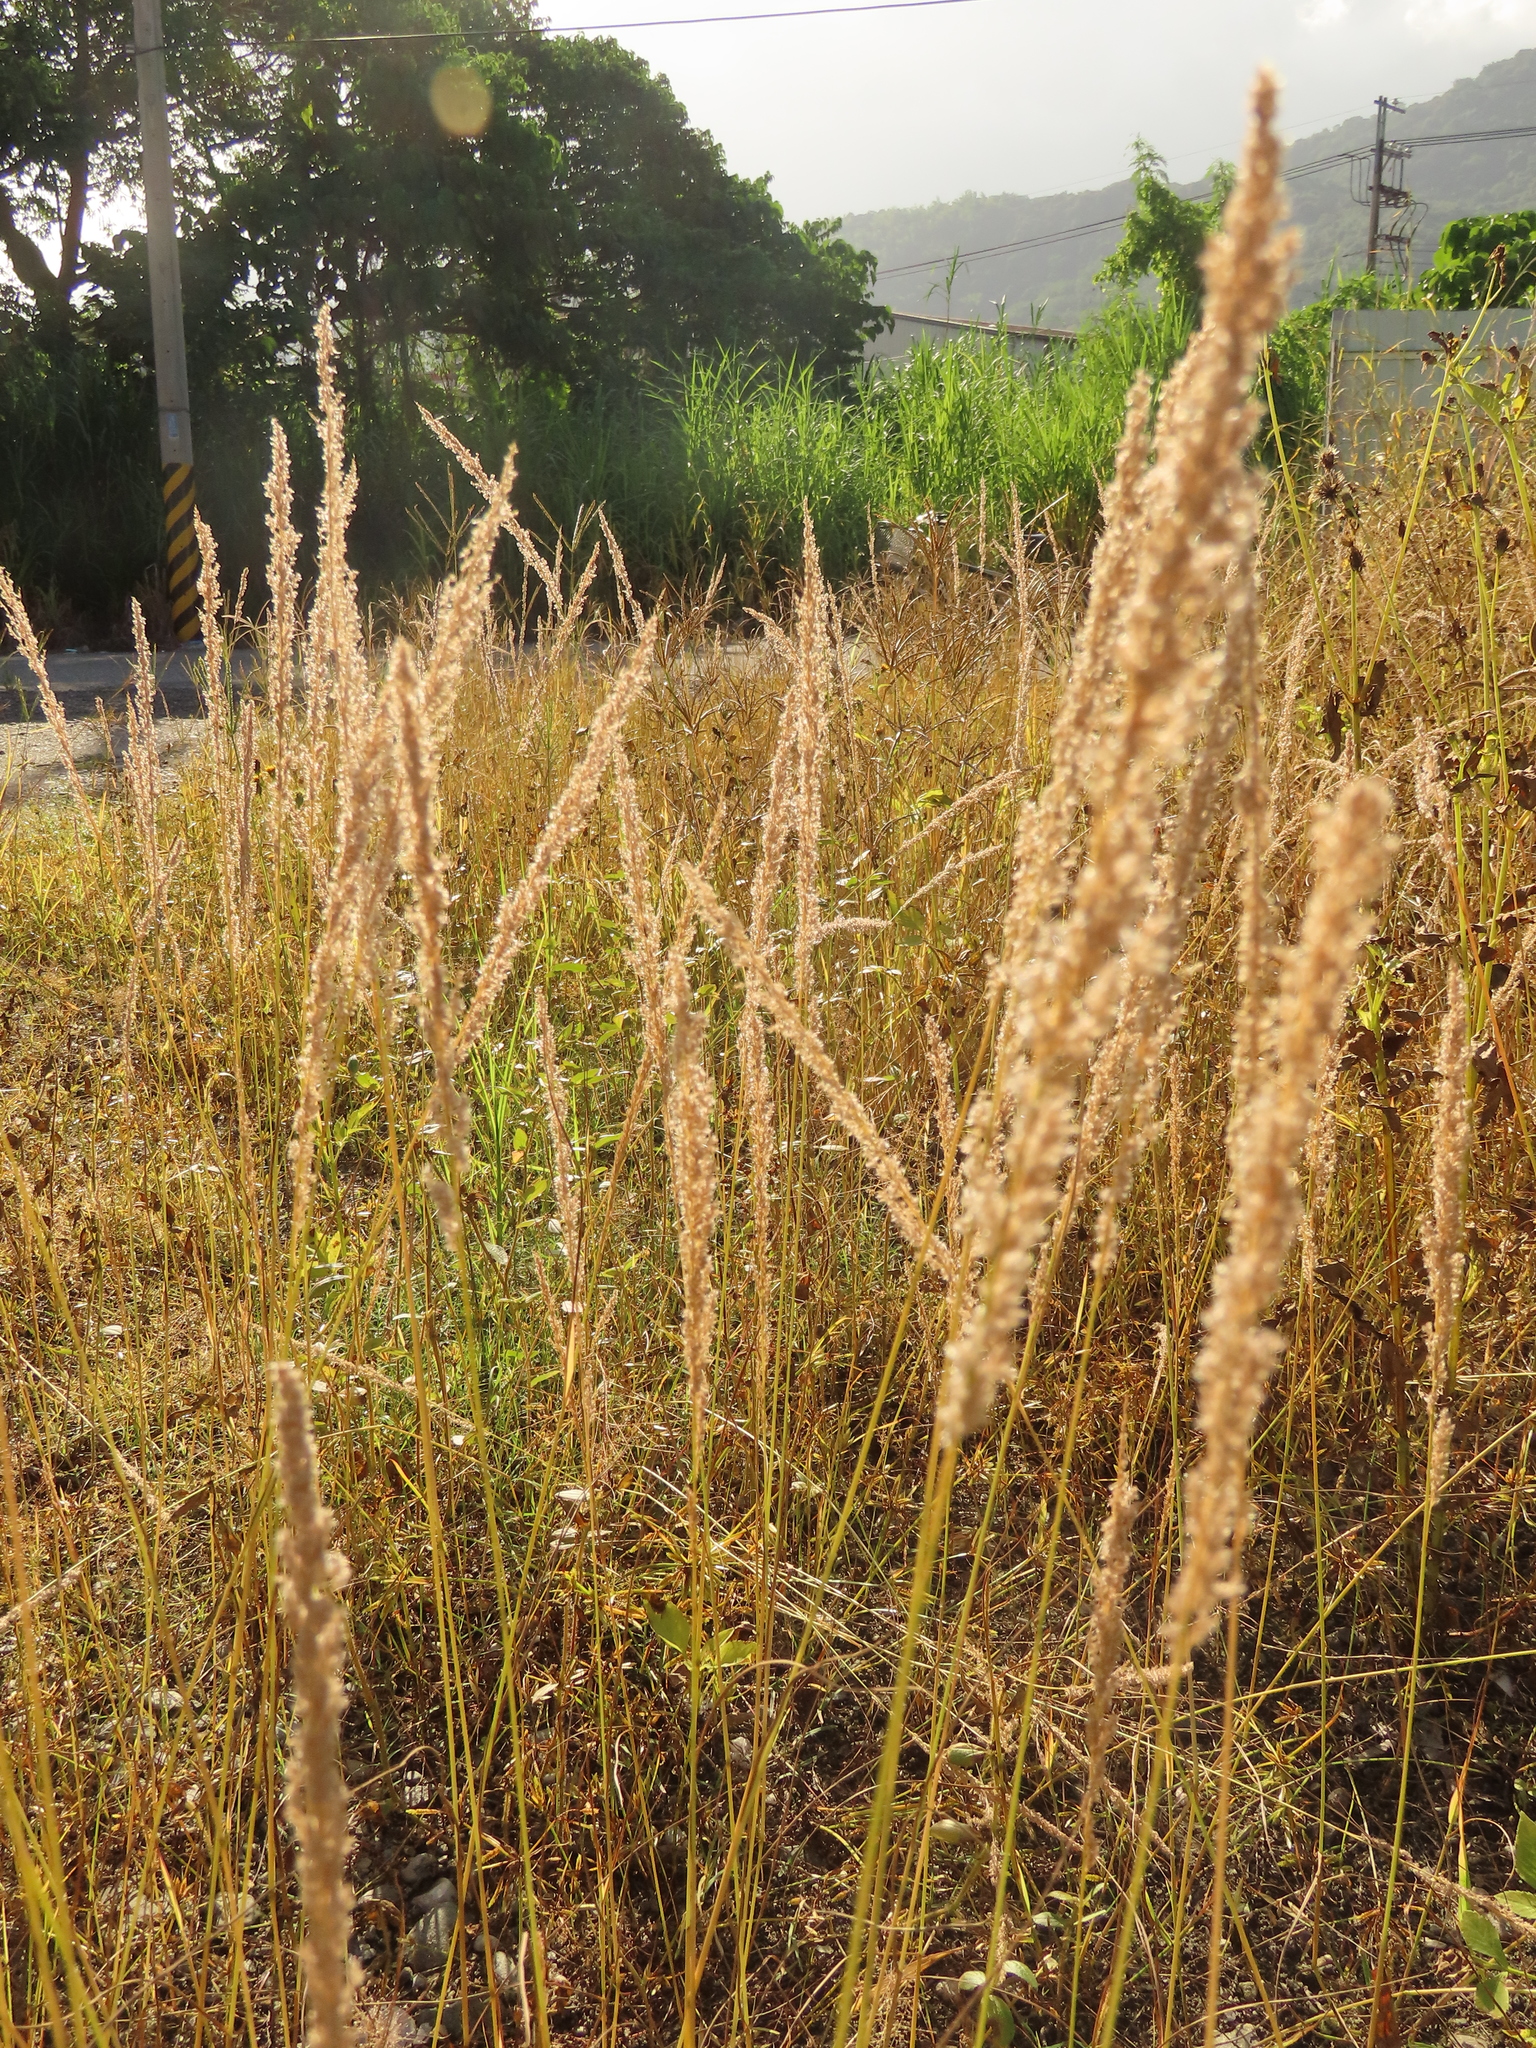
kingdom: Plantae
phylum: Tracheophyta
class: Liliopsida
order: Poales
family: Poaceae
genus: Eragrostis
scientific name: Eragrostis ciliaris
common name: Gophertail lovegrass
